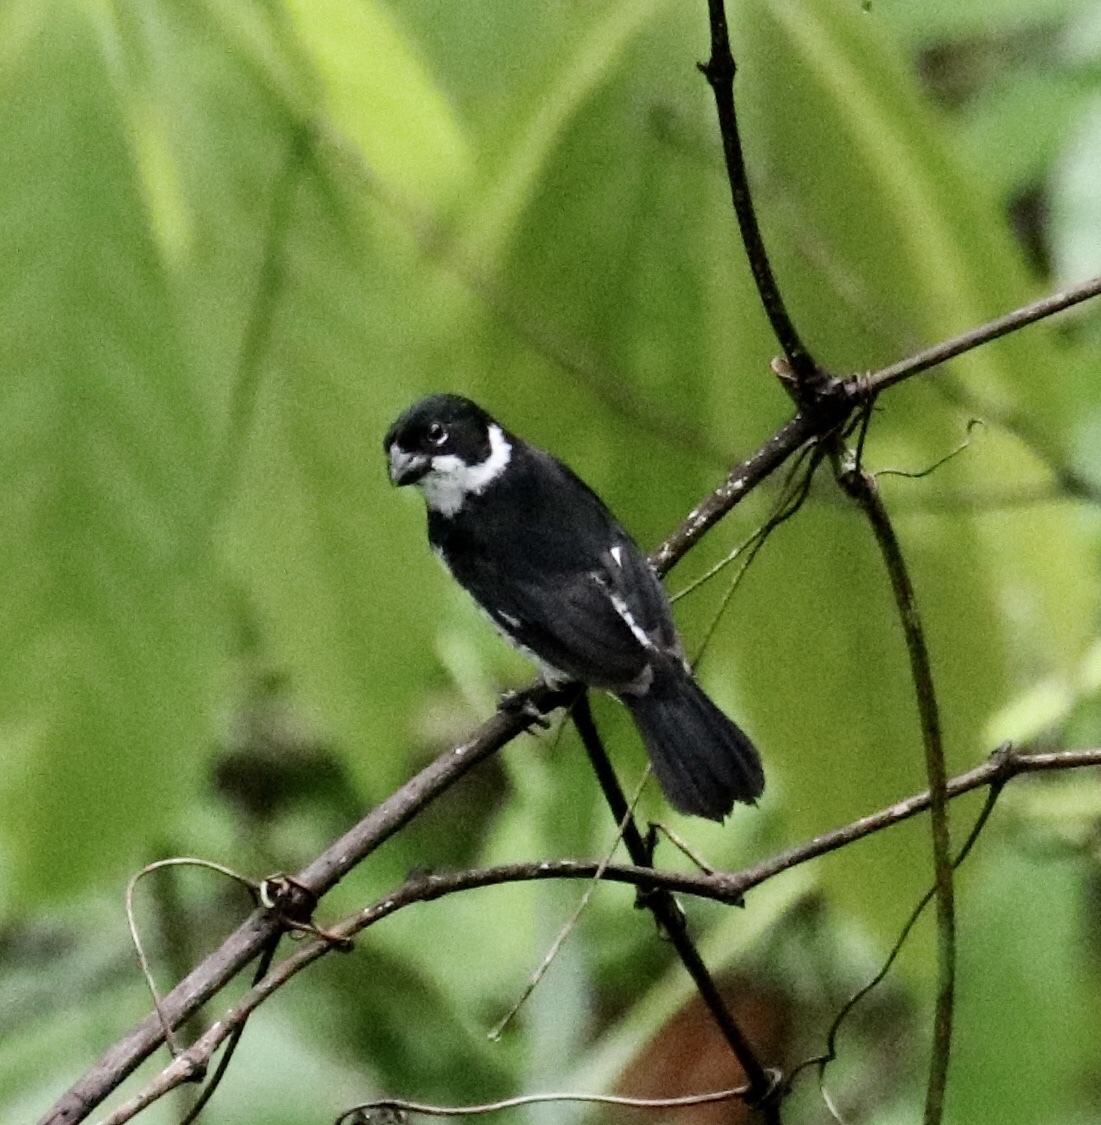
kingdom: Animalia
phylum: Chordata
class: Aves
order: Passeriformes
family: Thraupidae
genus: Sporophila
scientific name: Sporophila corvina
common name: Variable seedeater
